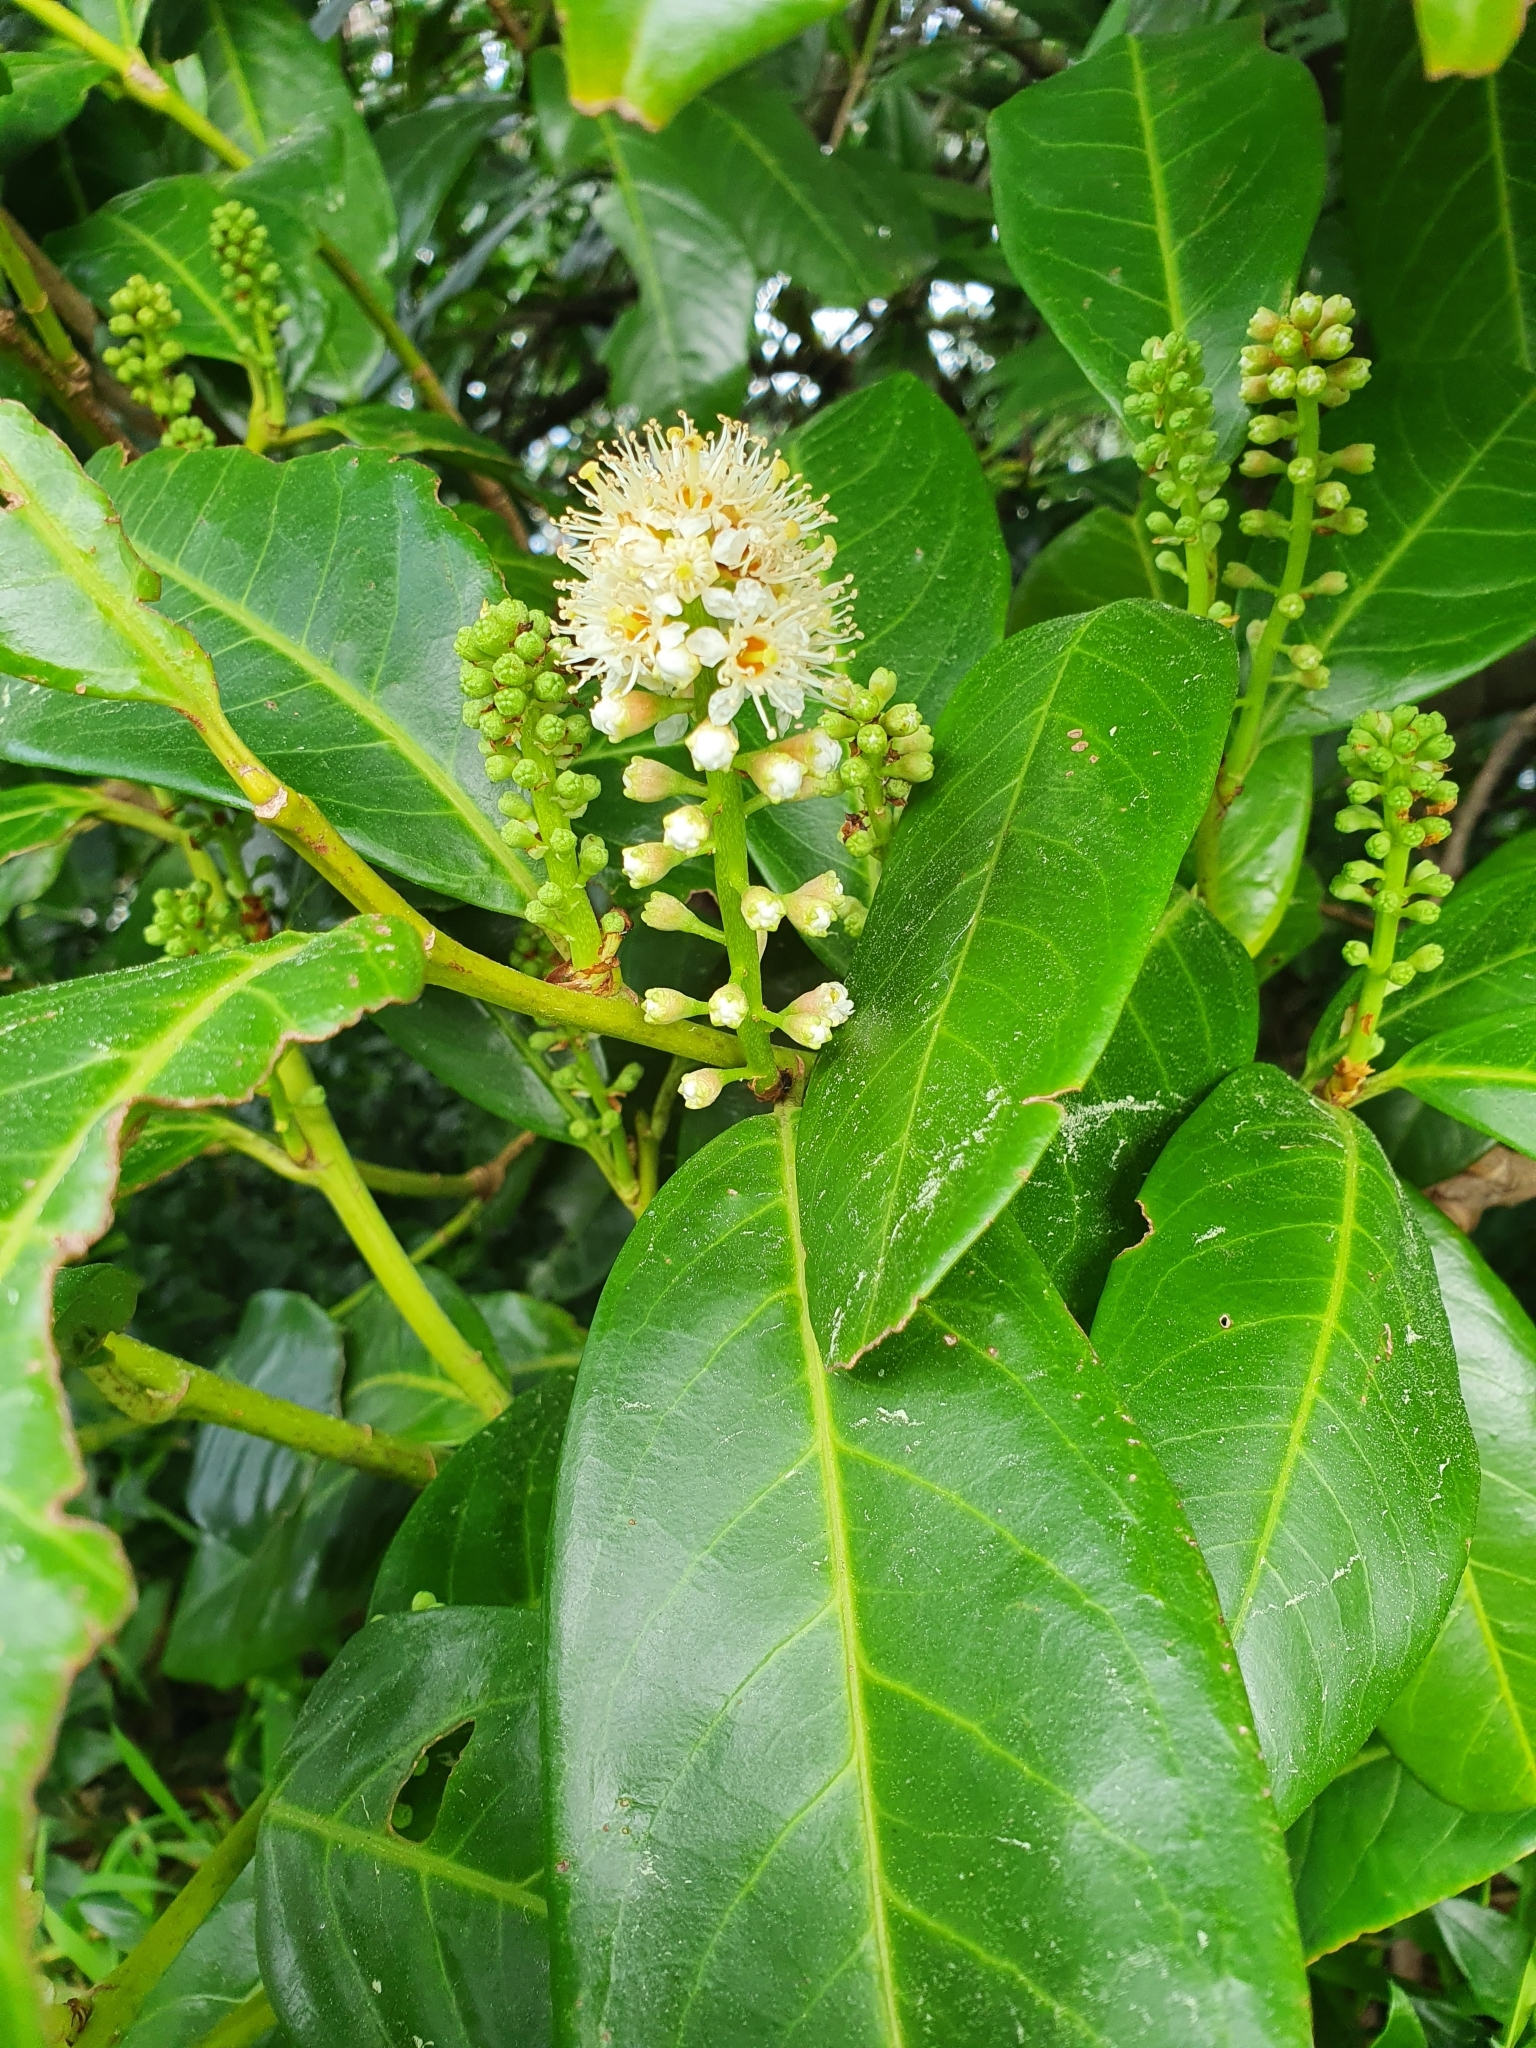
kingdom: Plantae
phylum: Tracheophyta
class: Magnoliopsida
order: Rosales
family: Rosaceae
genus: Prunus
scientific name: Prunus laurocerasus
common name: Cherry laurel
